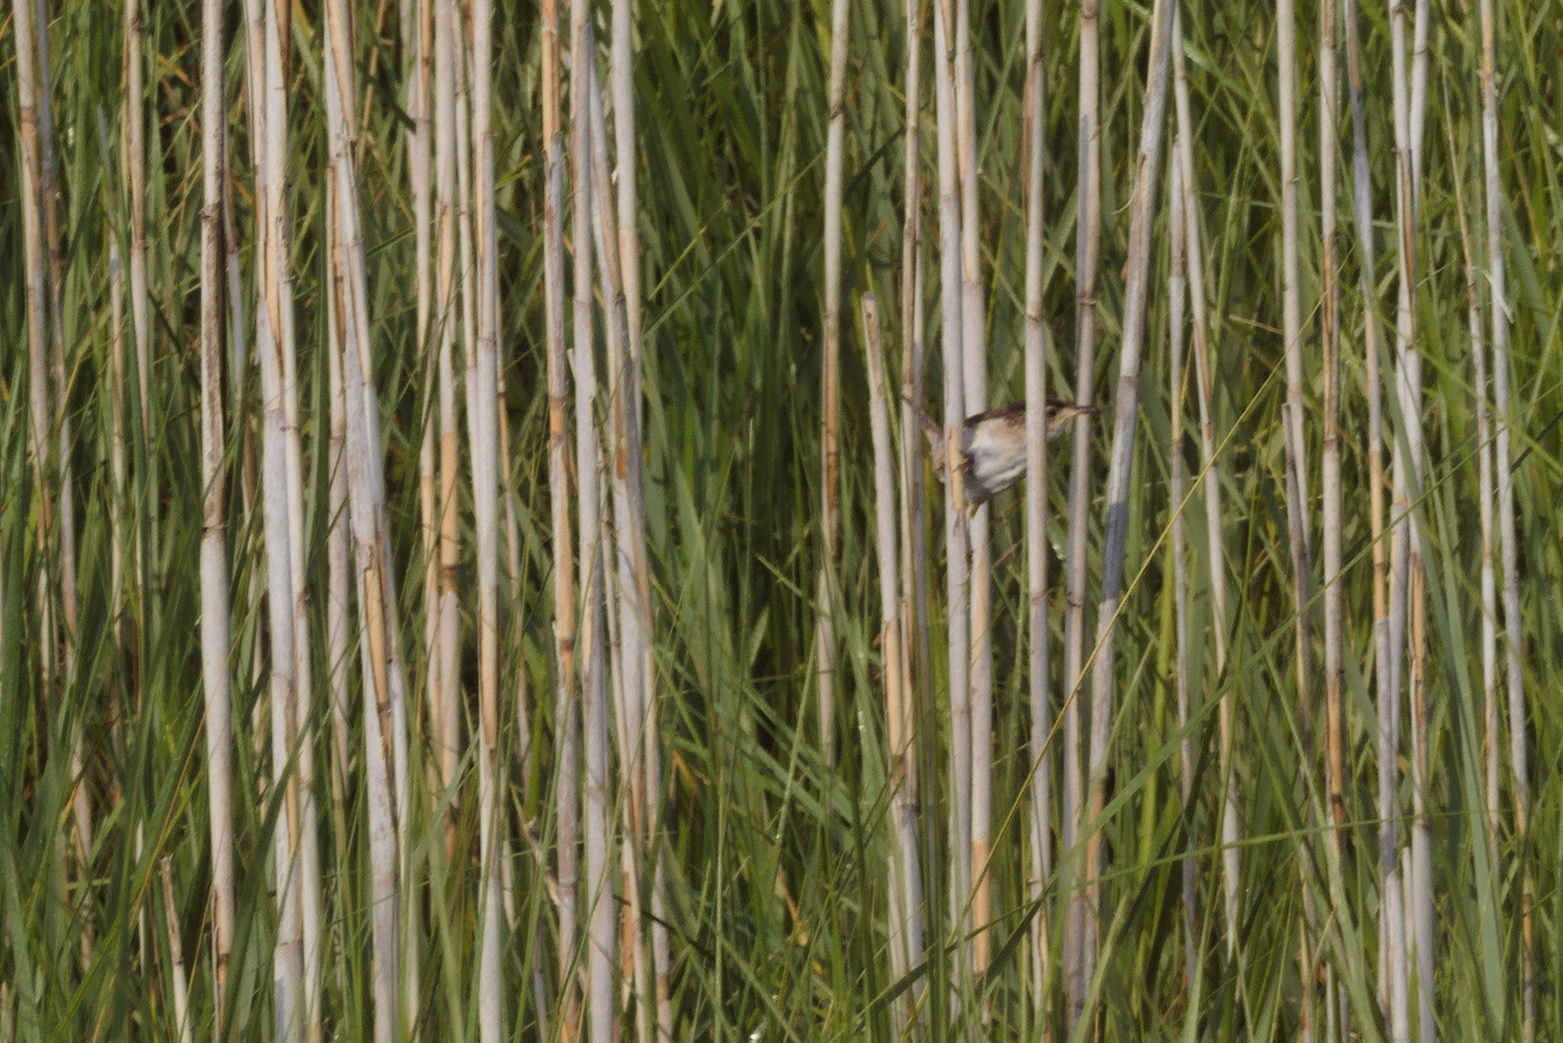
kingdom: Animalia
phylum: Chordata
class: Aves
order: Passeriformes
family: Troglodytidae
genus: Cistothorus
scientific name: Cistothorus palustris
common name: Marsh wren
